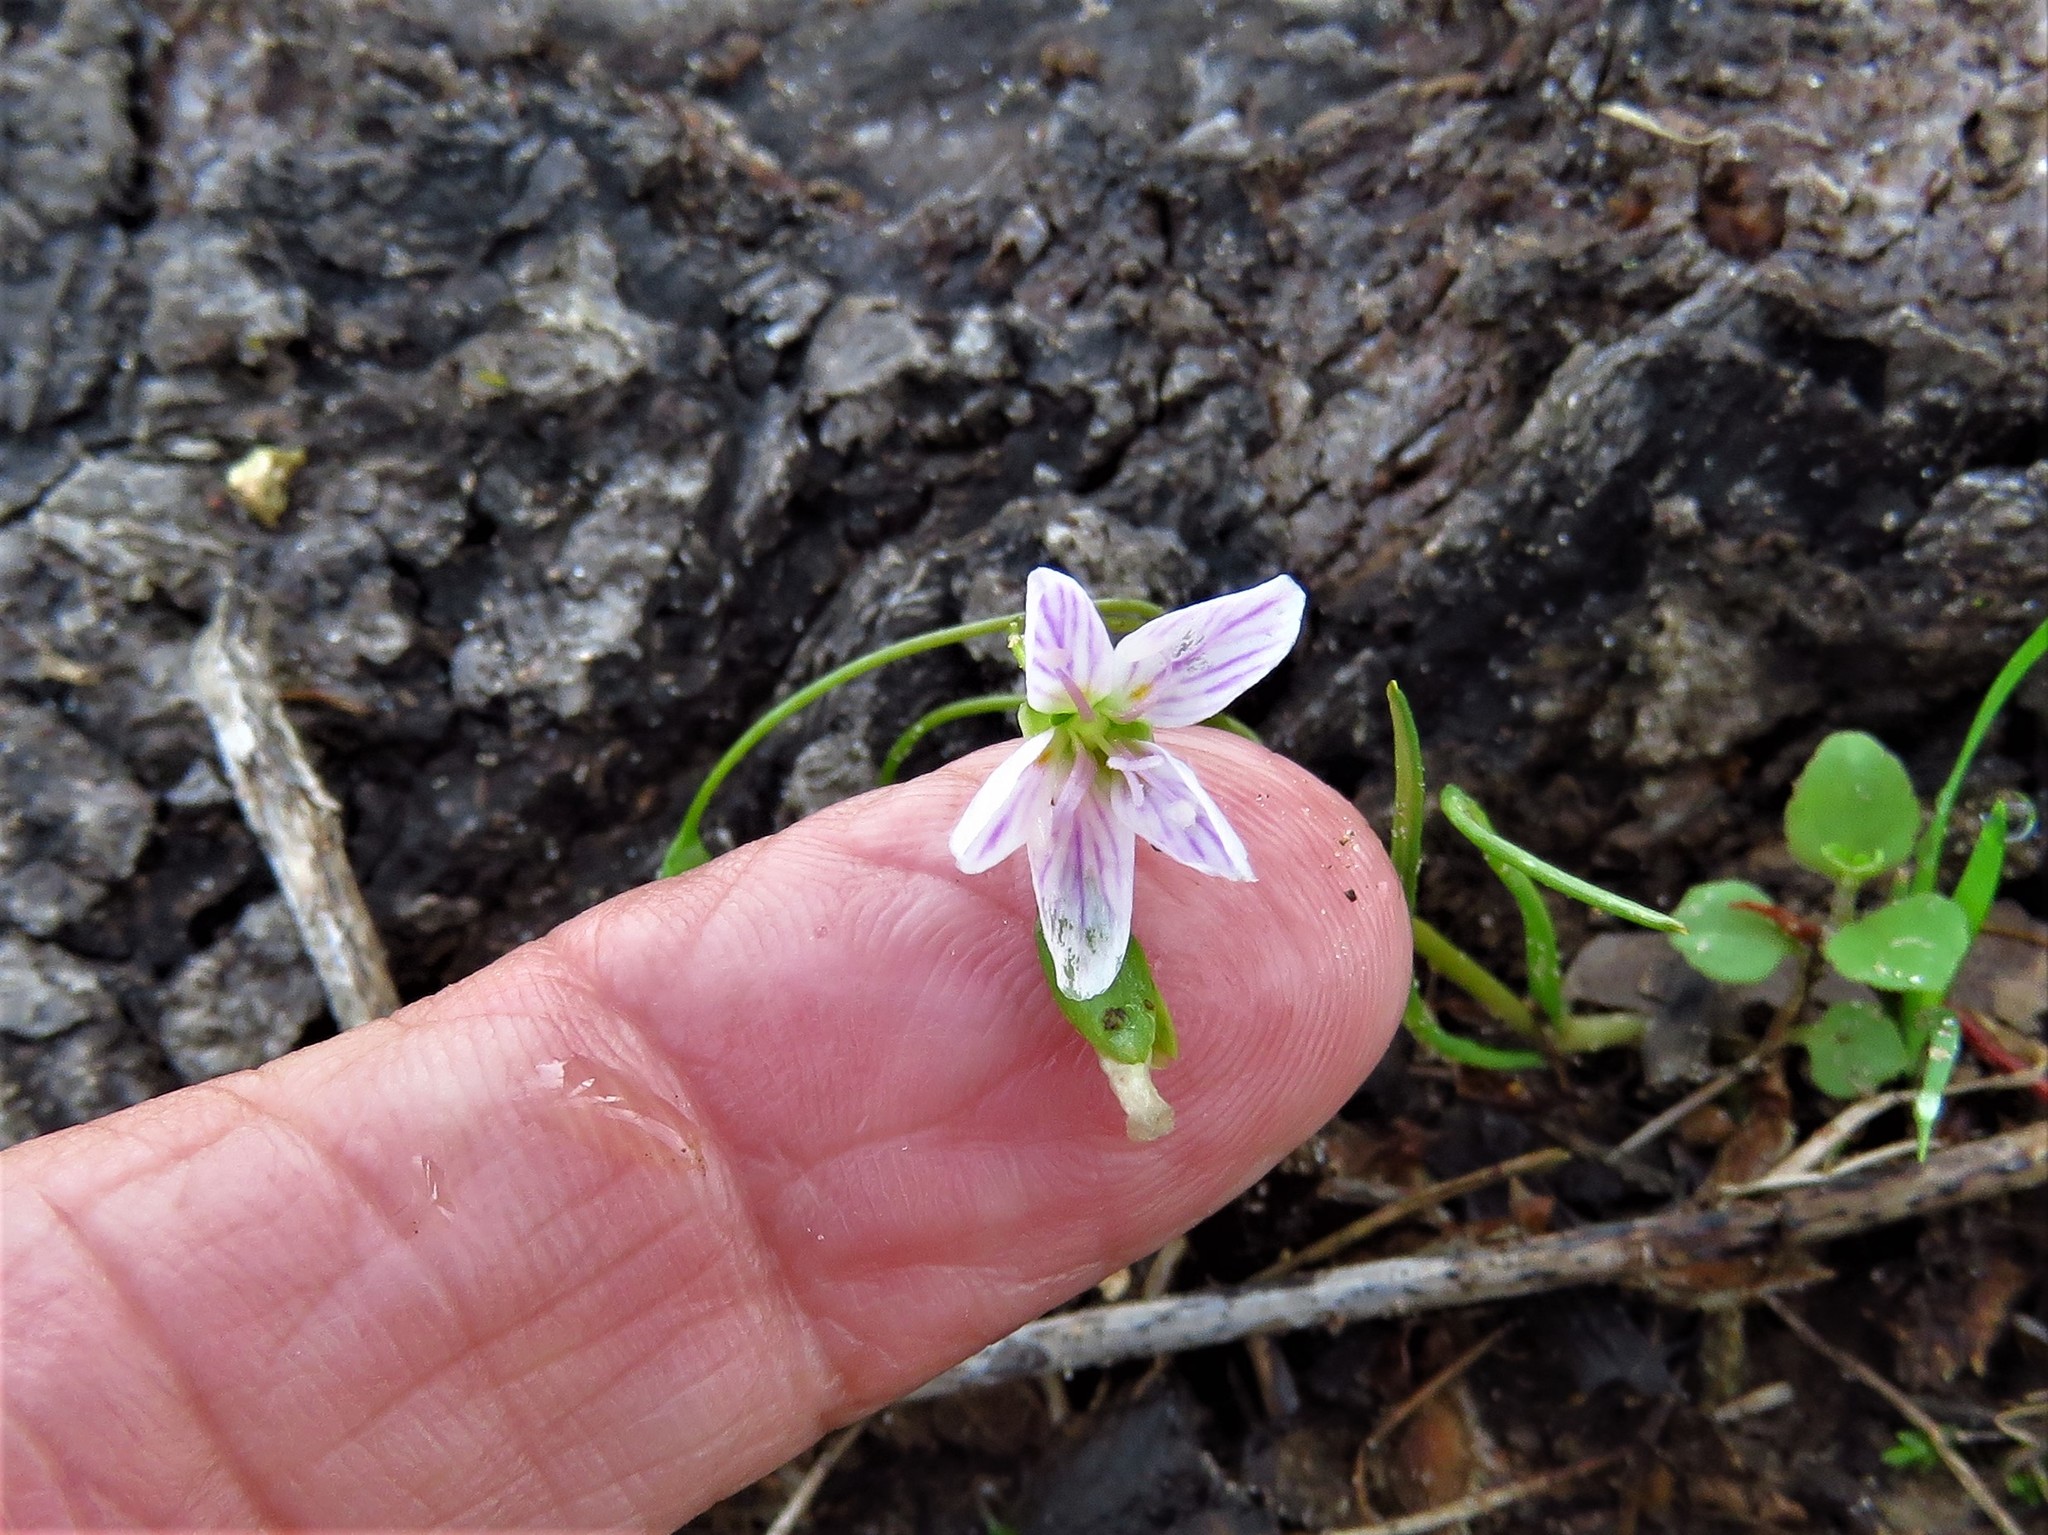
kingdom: Plantae
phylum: Tracheophyta
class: Magnoliopsida
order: Caryophyllales
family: Montiaceae
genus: Claytonia
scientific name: Claytonia virginica
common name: Virginia springbeauty
